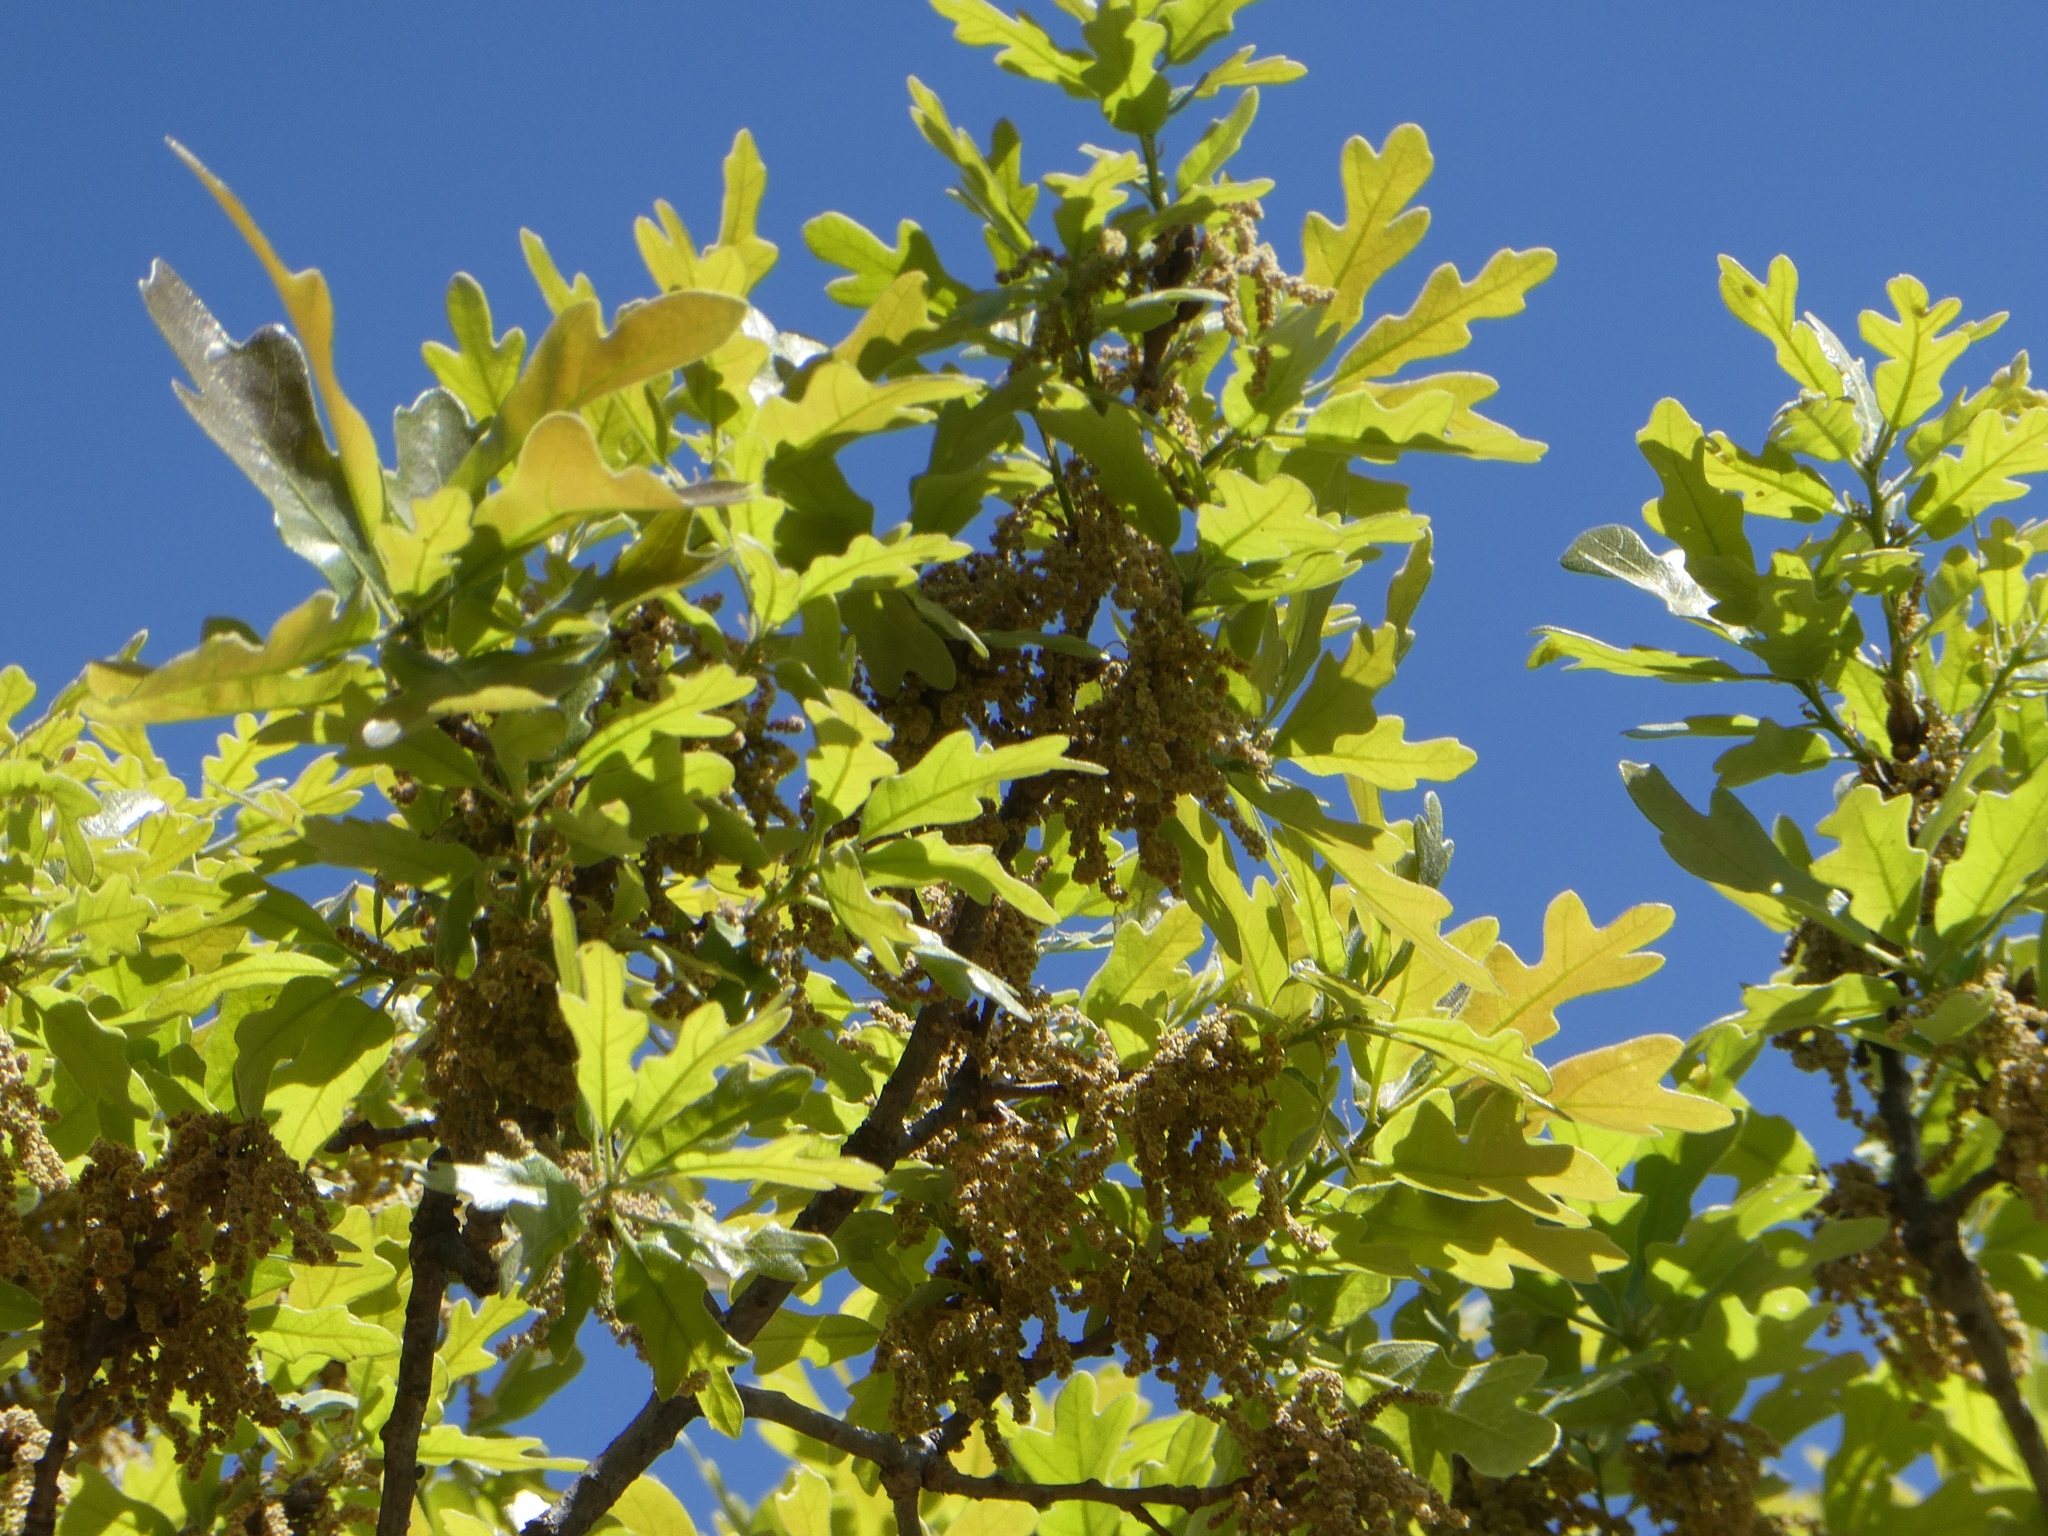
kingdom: Plantae
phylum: Tracheophyta
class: Magnoliopsida
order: Fagales
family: Fagaceae
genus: Quercus
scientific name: Quercus stellata
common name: Post oak
